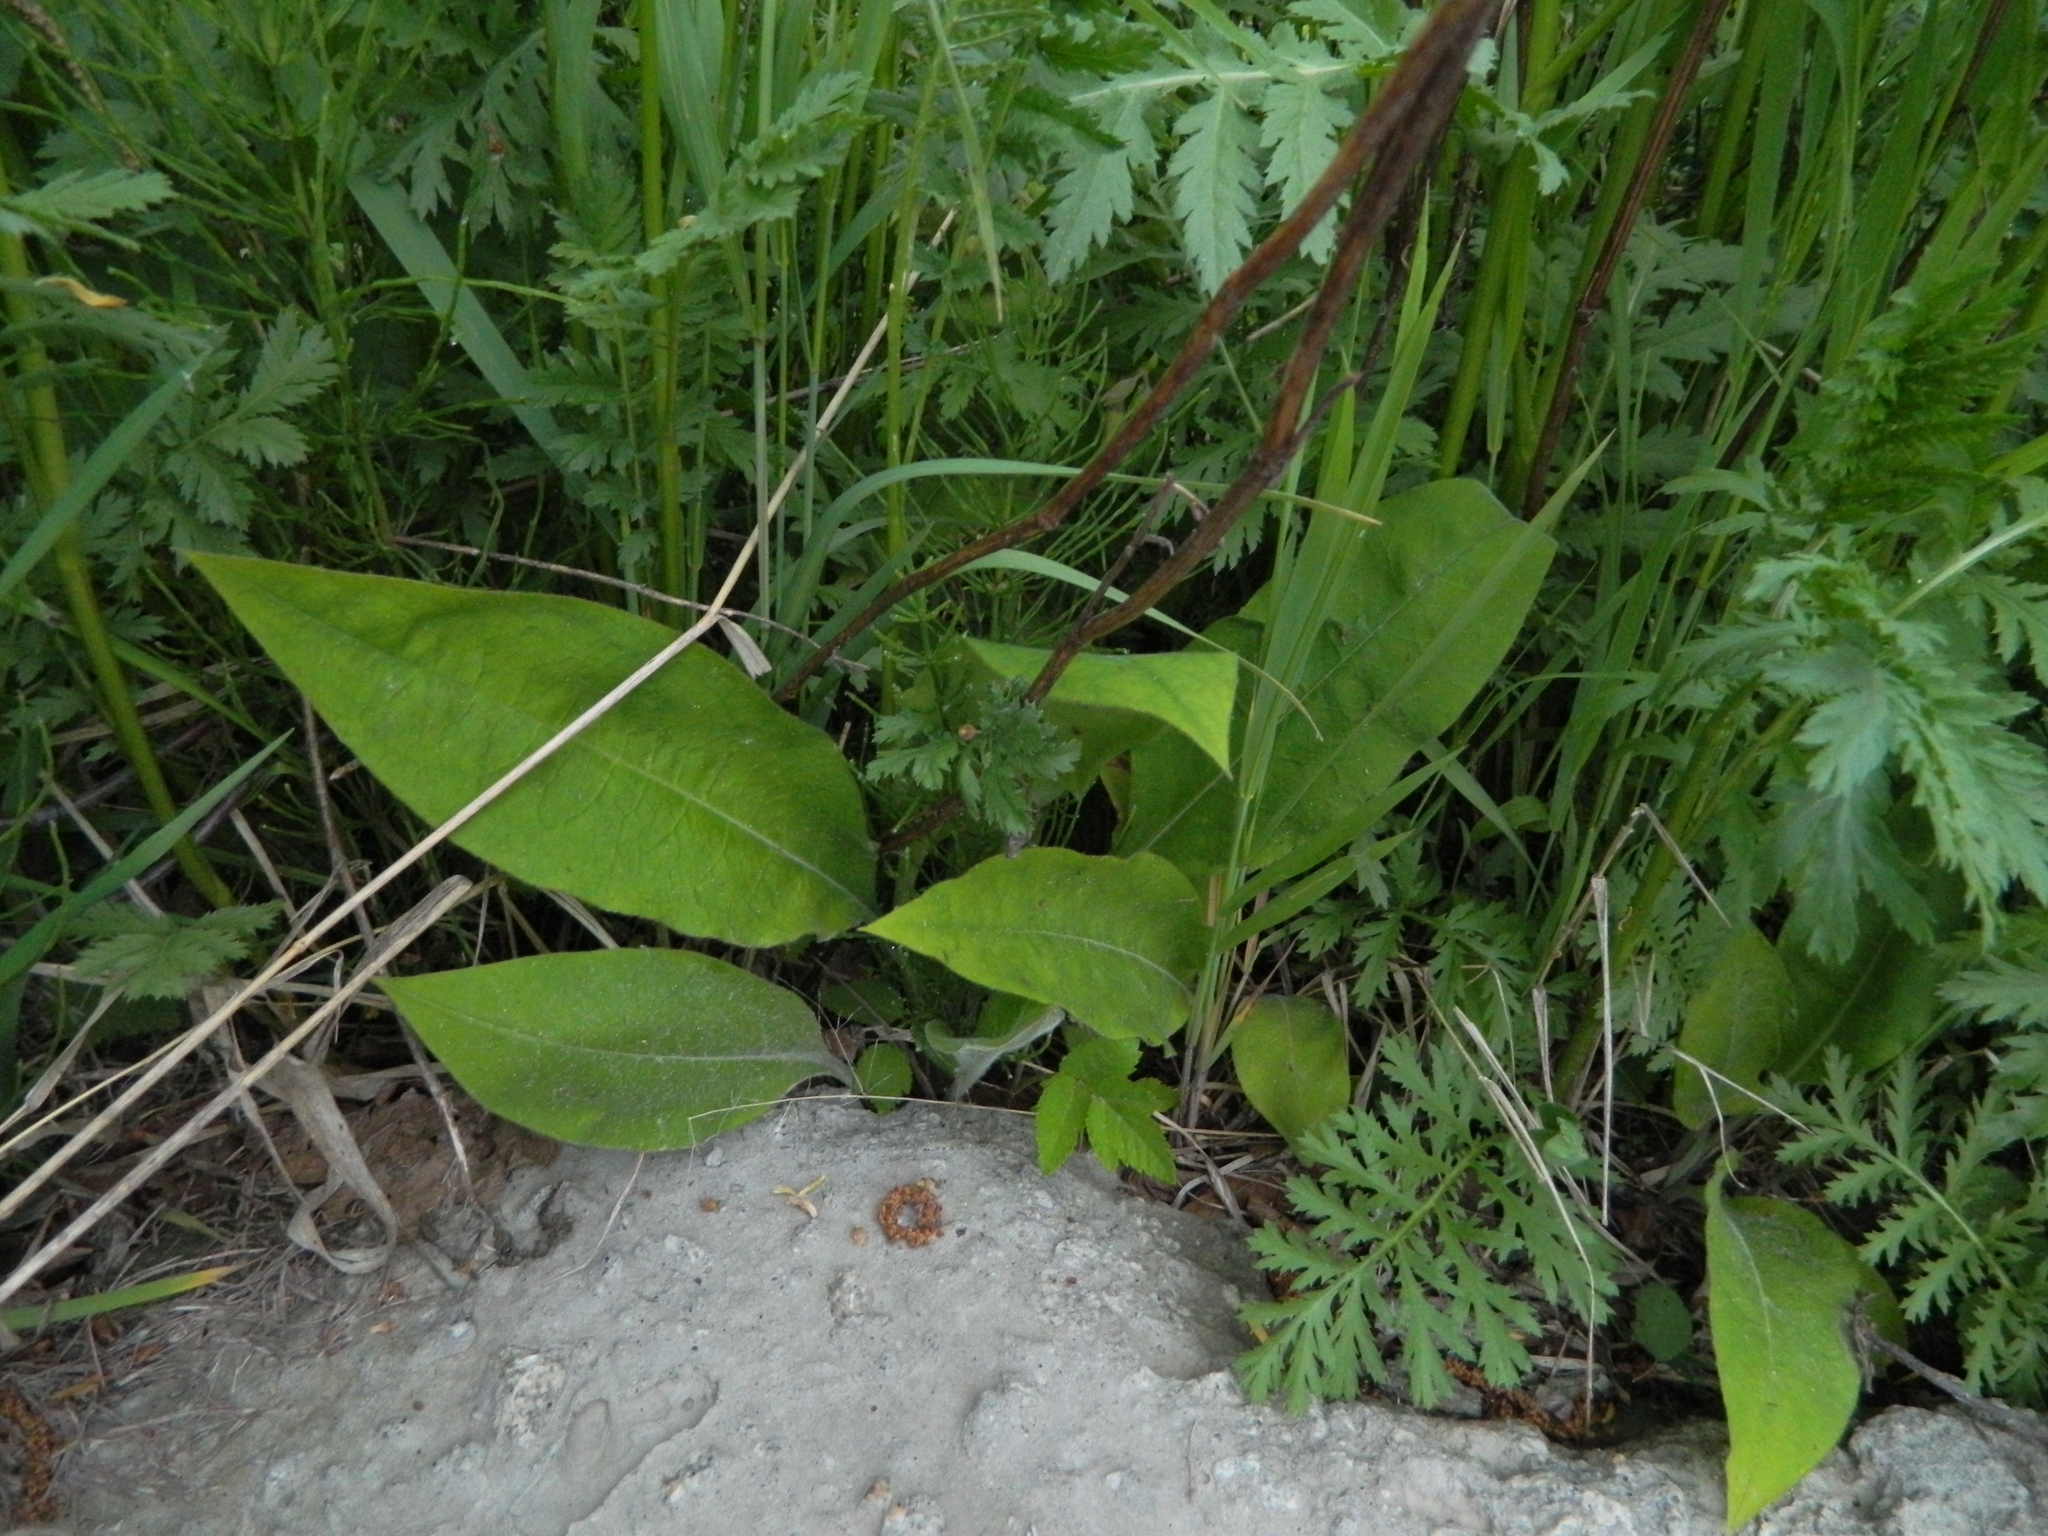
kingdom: Plantae
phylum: Tracheophyta
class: Magnoliopsida
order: Boraginales
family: Boraginaceae
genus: Pulmonaria
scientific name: Pulmonaria mollis
